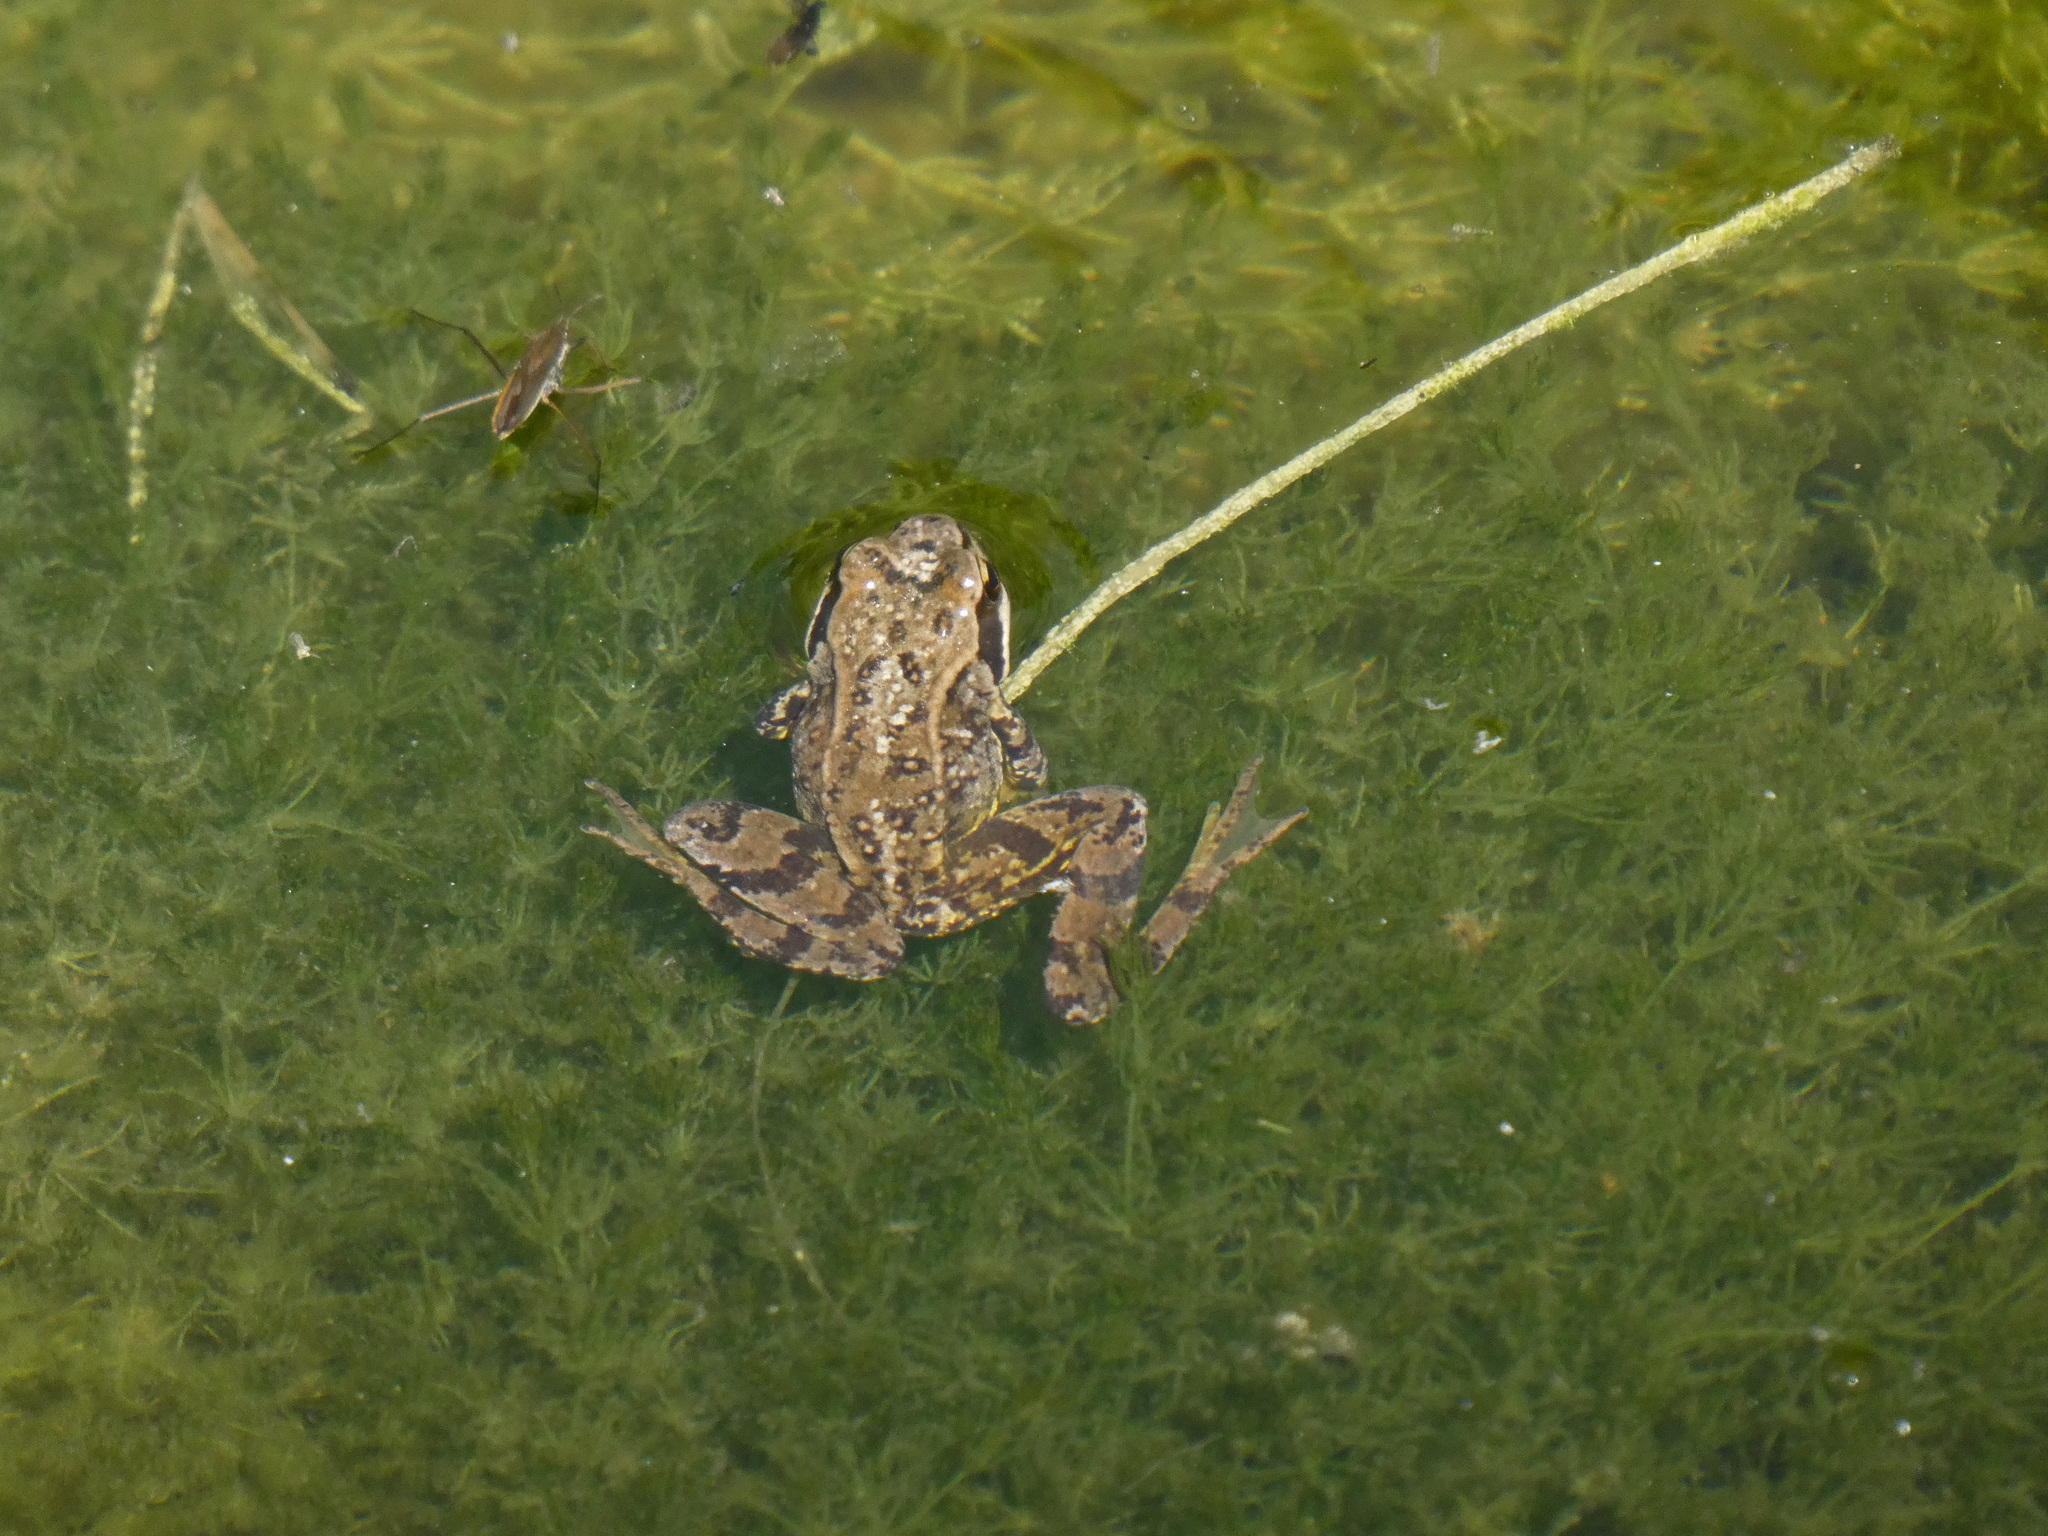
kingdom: Animalia
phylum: Chordata
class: Amphibia
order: Anura
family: Ranidae
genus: Rana
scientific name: Rana temporaria
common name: Common frog
